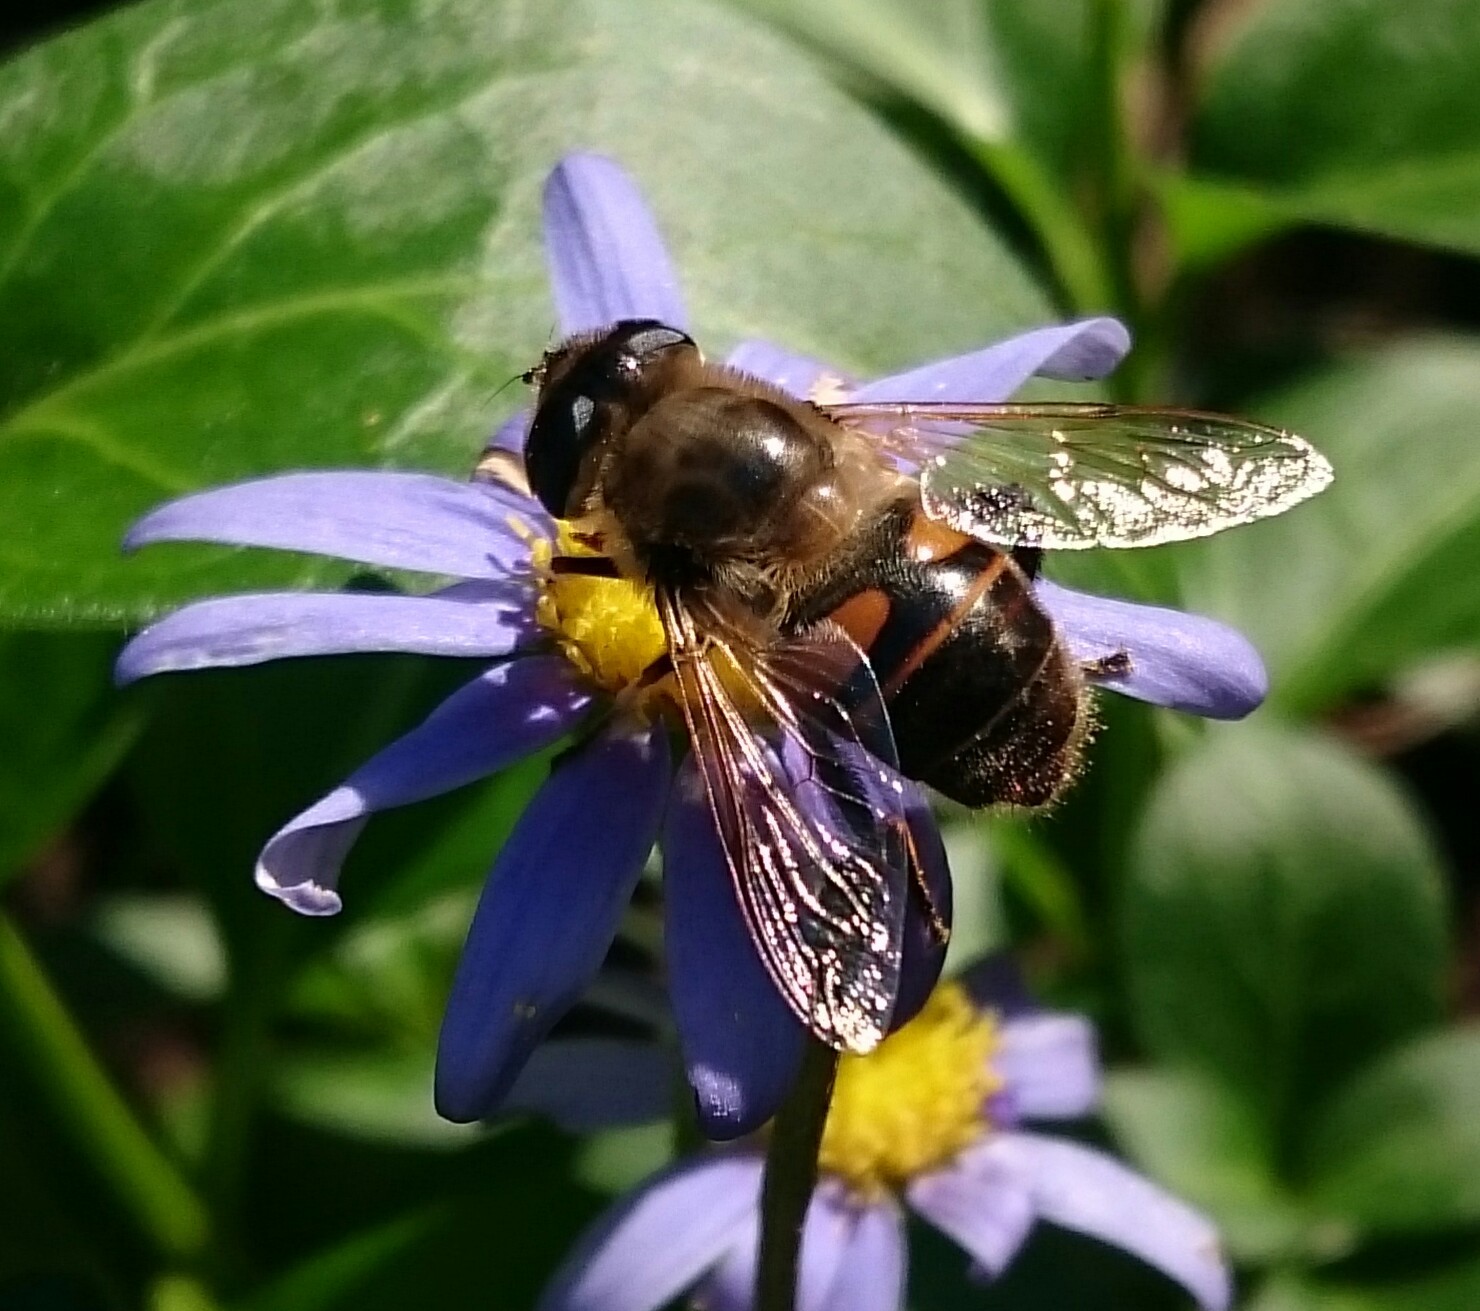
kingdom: Animalia
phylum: Arthropoda
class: Insecta
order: Diptera
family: Syrphidae
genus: Eristalis
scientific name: Eristalis tenax
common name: Drone fly
